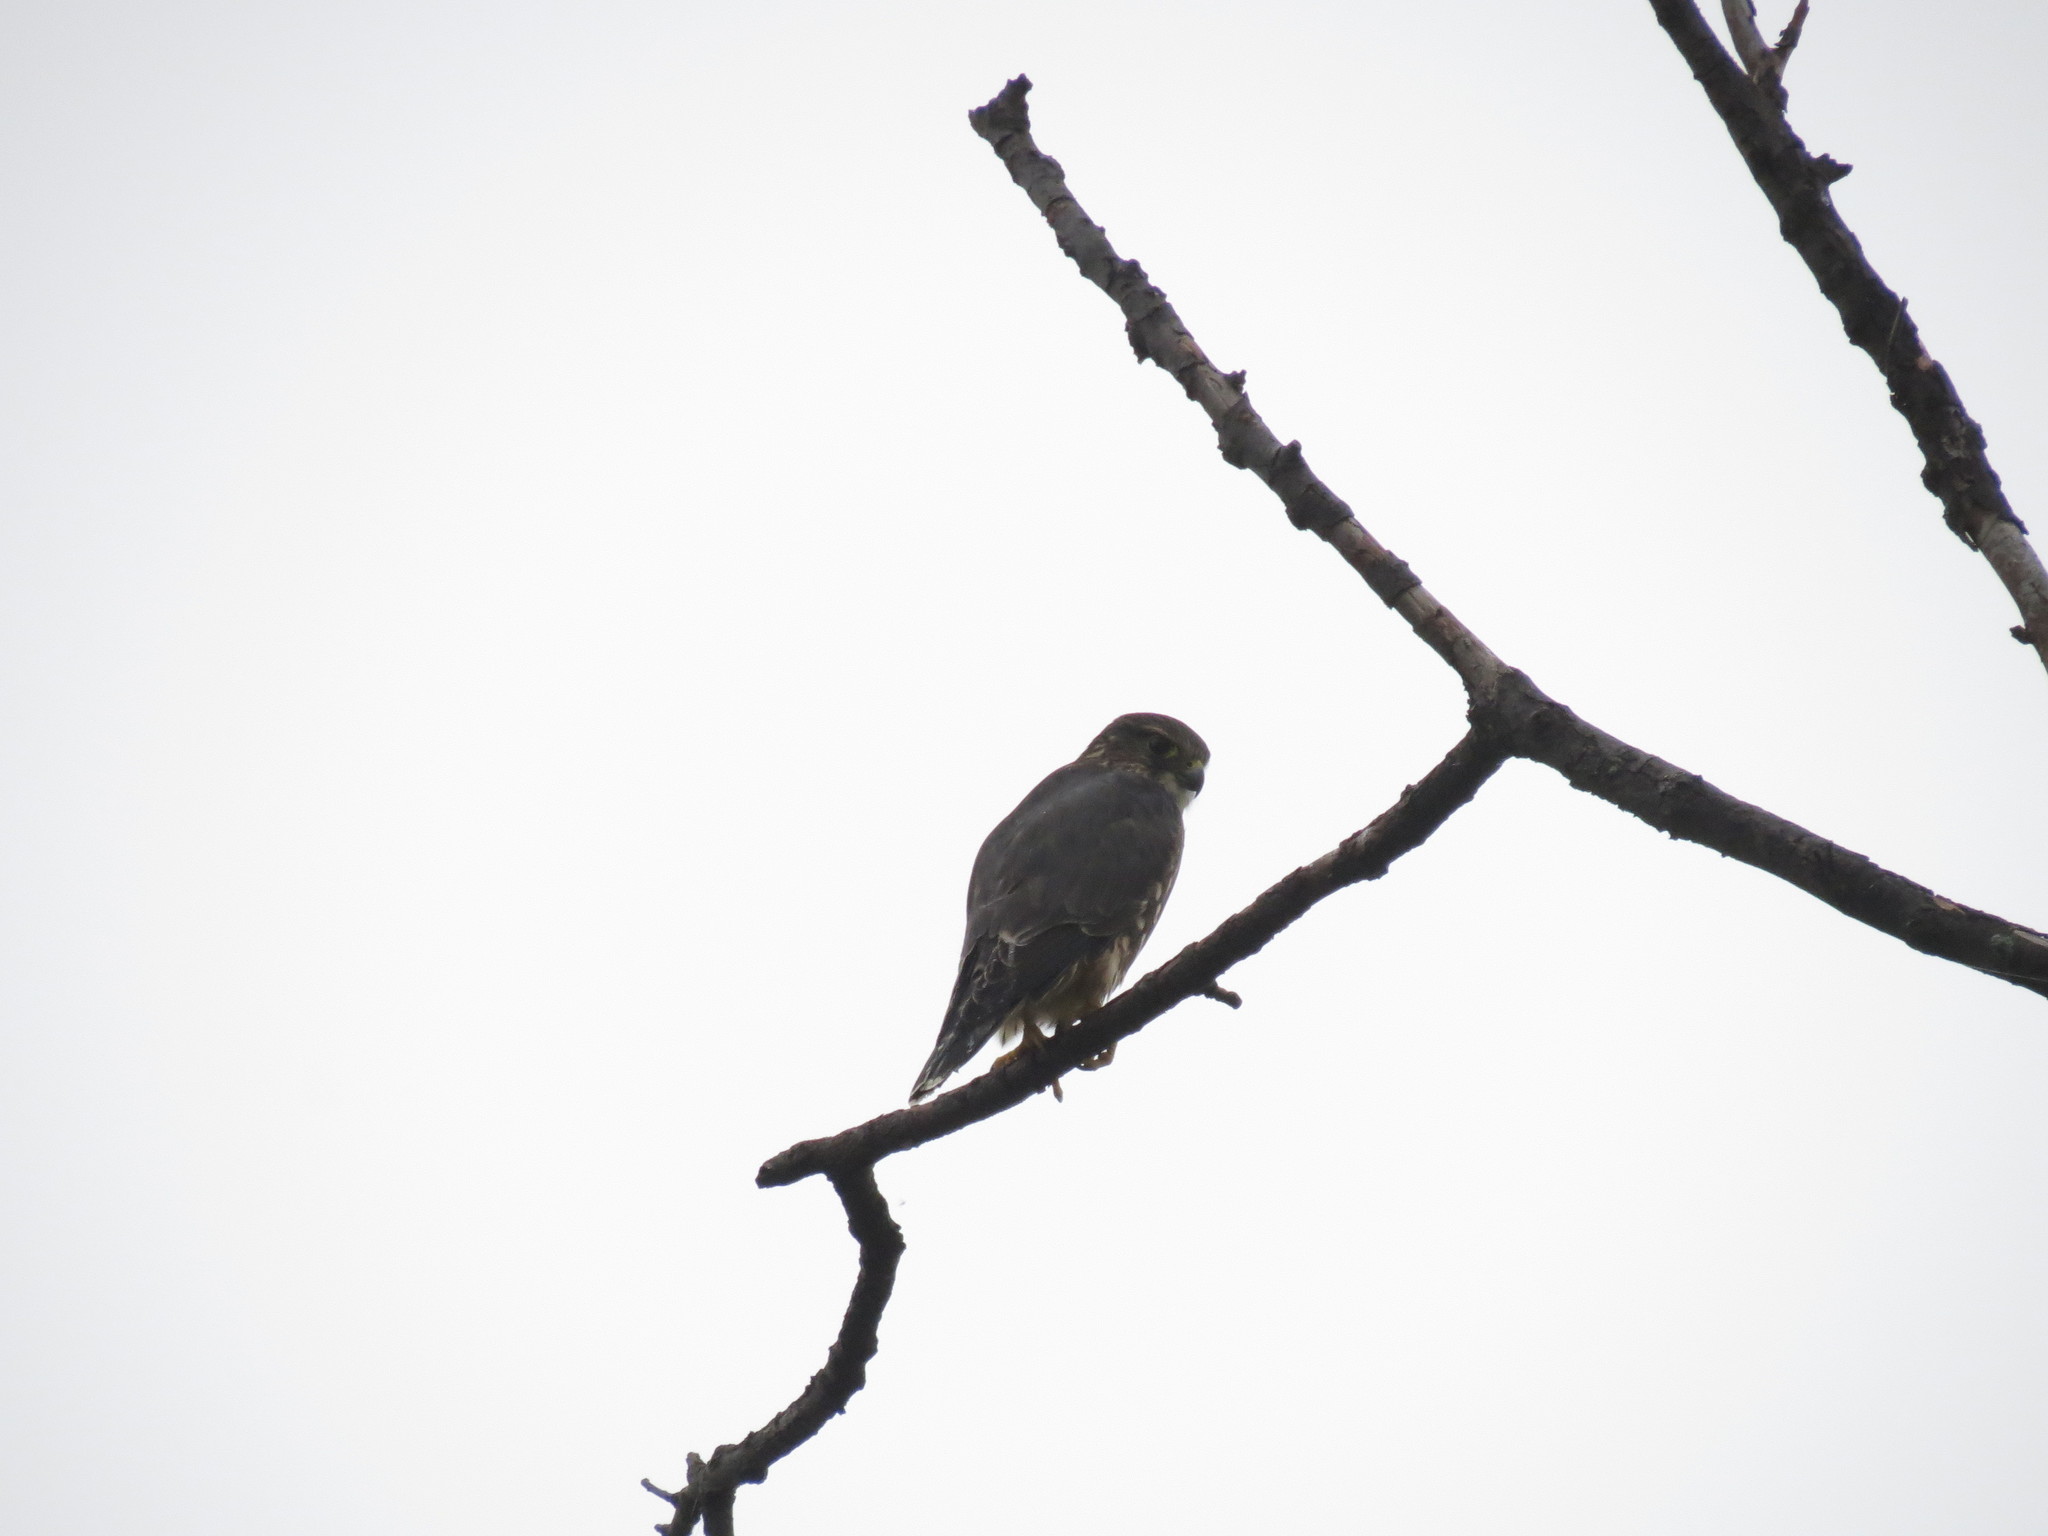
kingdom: Animalia
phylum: Chordata
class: Aves
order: Falconiformes
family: Falconidae
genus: Falco
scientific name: Falco columbarius
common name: Merlin
